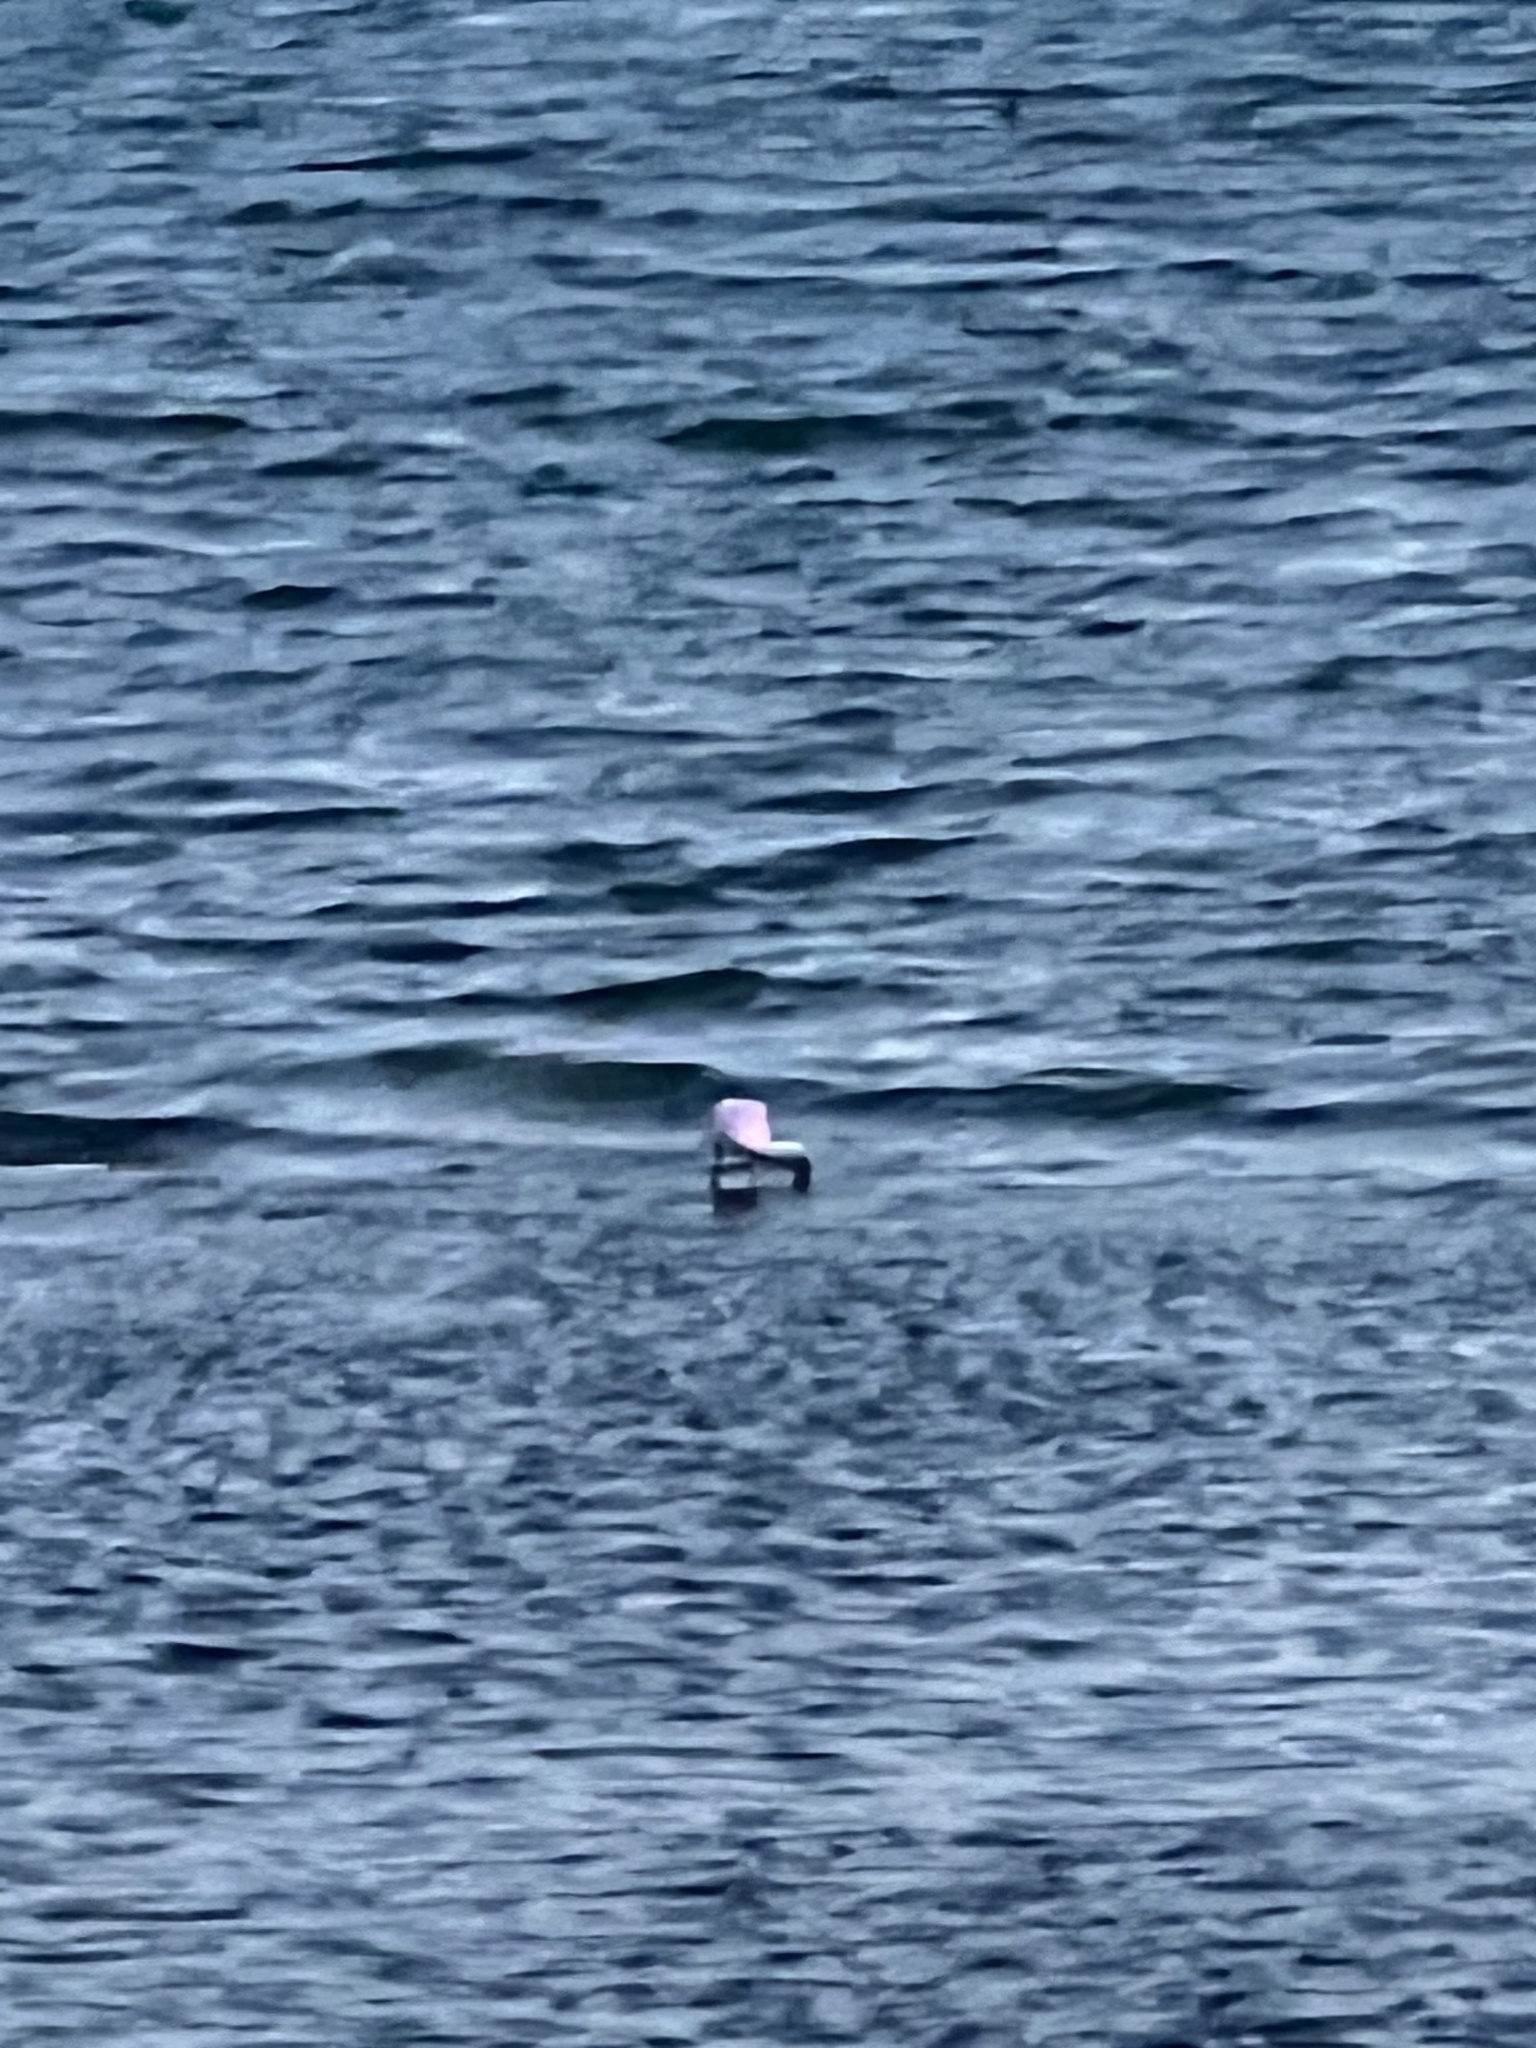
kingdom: Animalia
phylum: Chordata
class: Aves
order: Pelecaniformes
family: Threskiornithidae
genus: Platalea
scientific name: Platalea ajaja
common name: Roseate spoonbill
